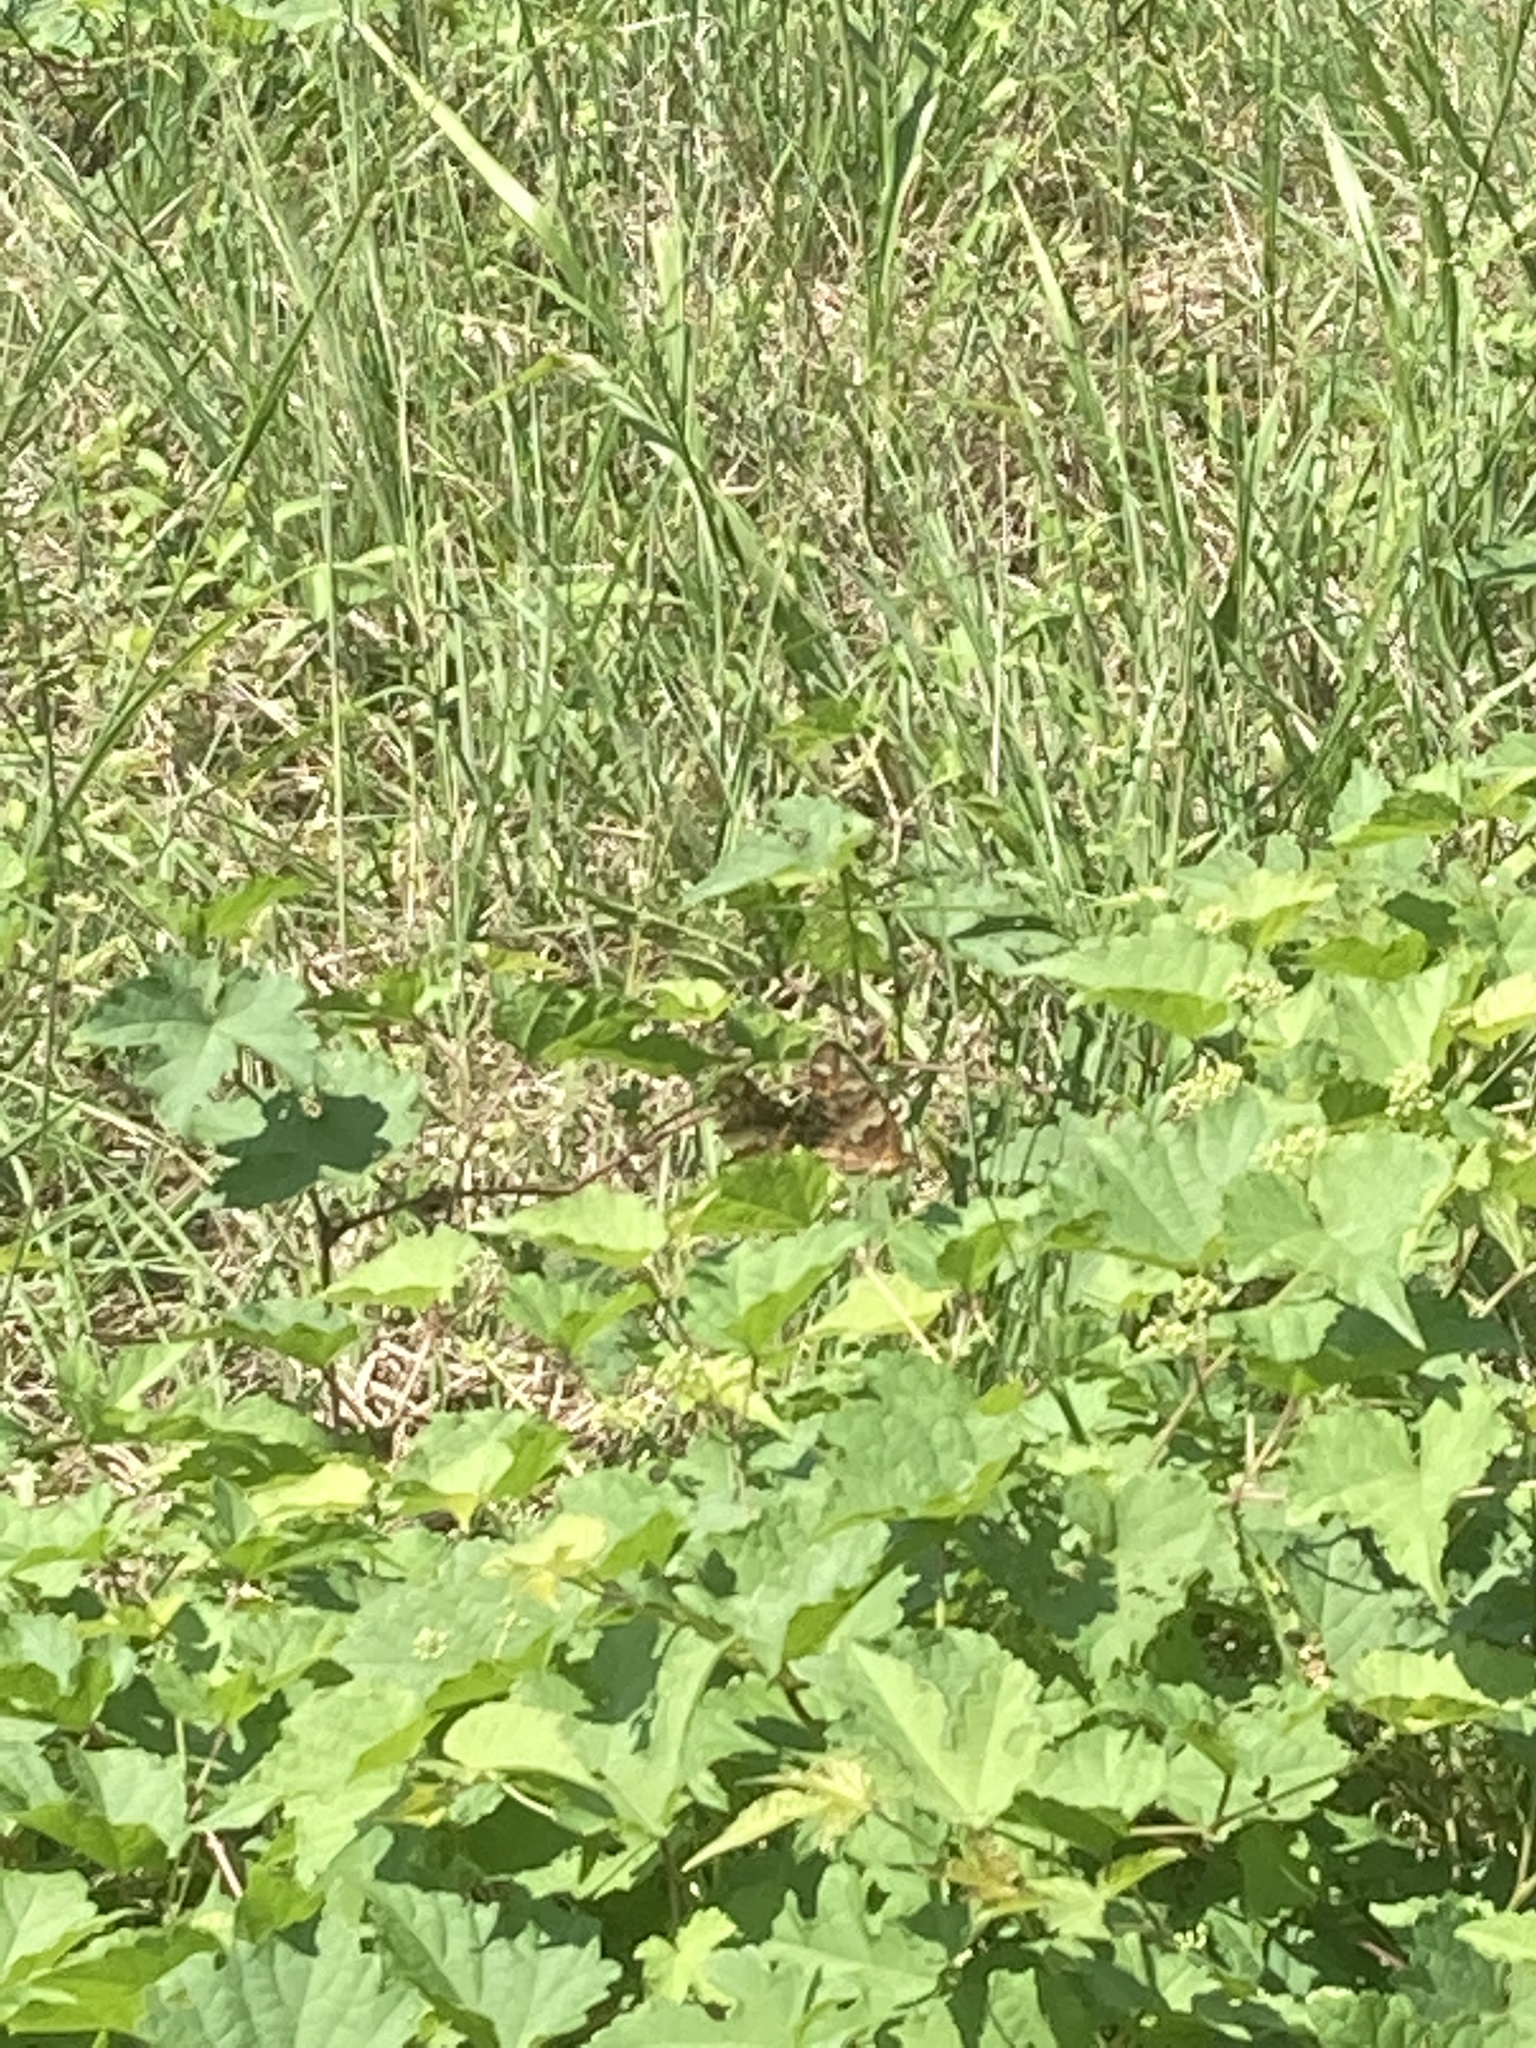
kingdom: Animalia
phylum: Arthropoda
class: Insecta
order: Lepidoptera
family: Nymphalidae
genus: Euptoieta
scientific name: Euptoieta claudia
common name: Variegated fritillary
